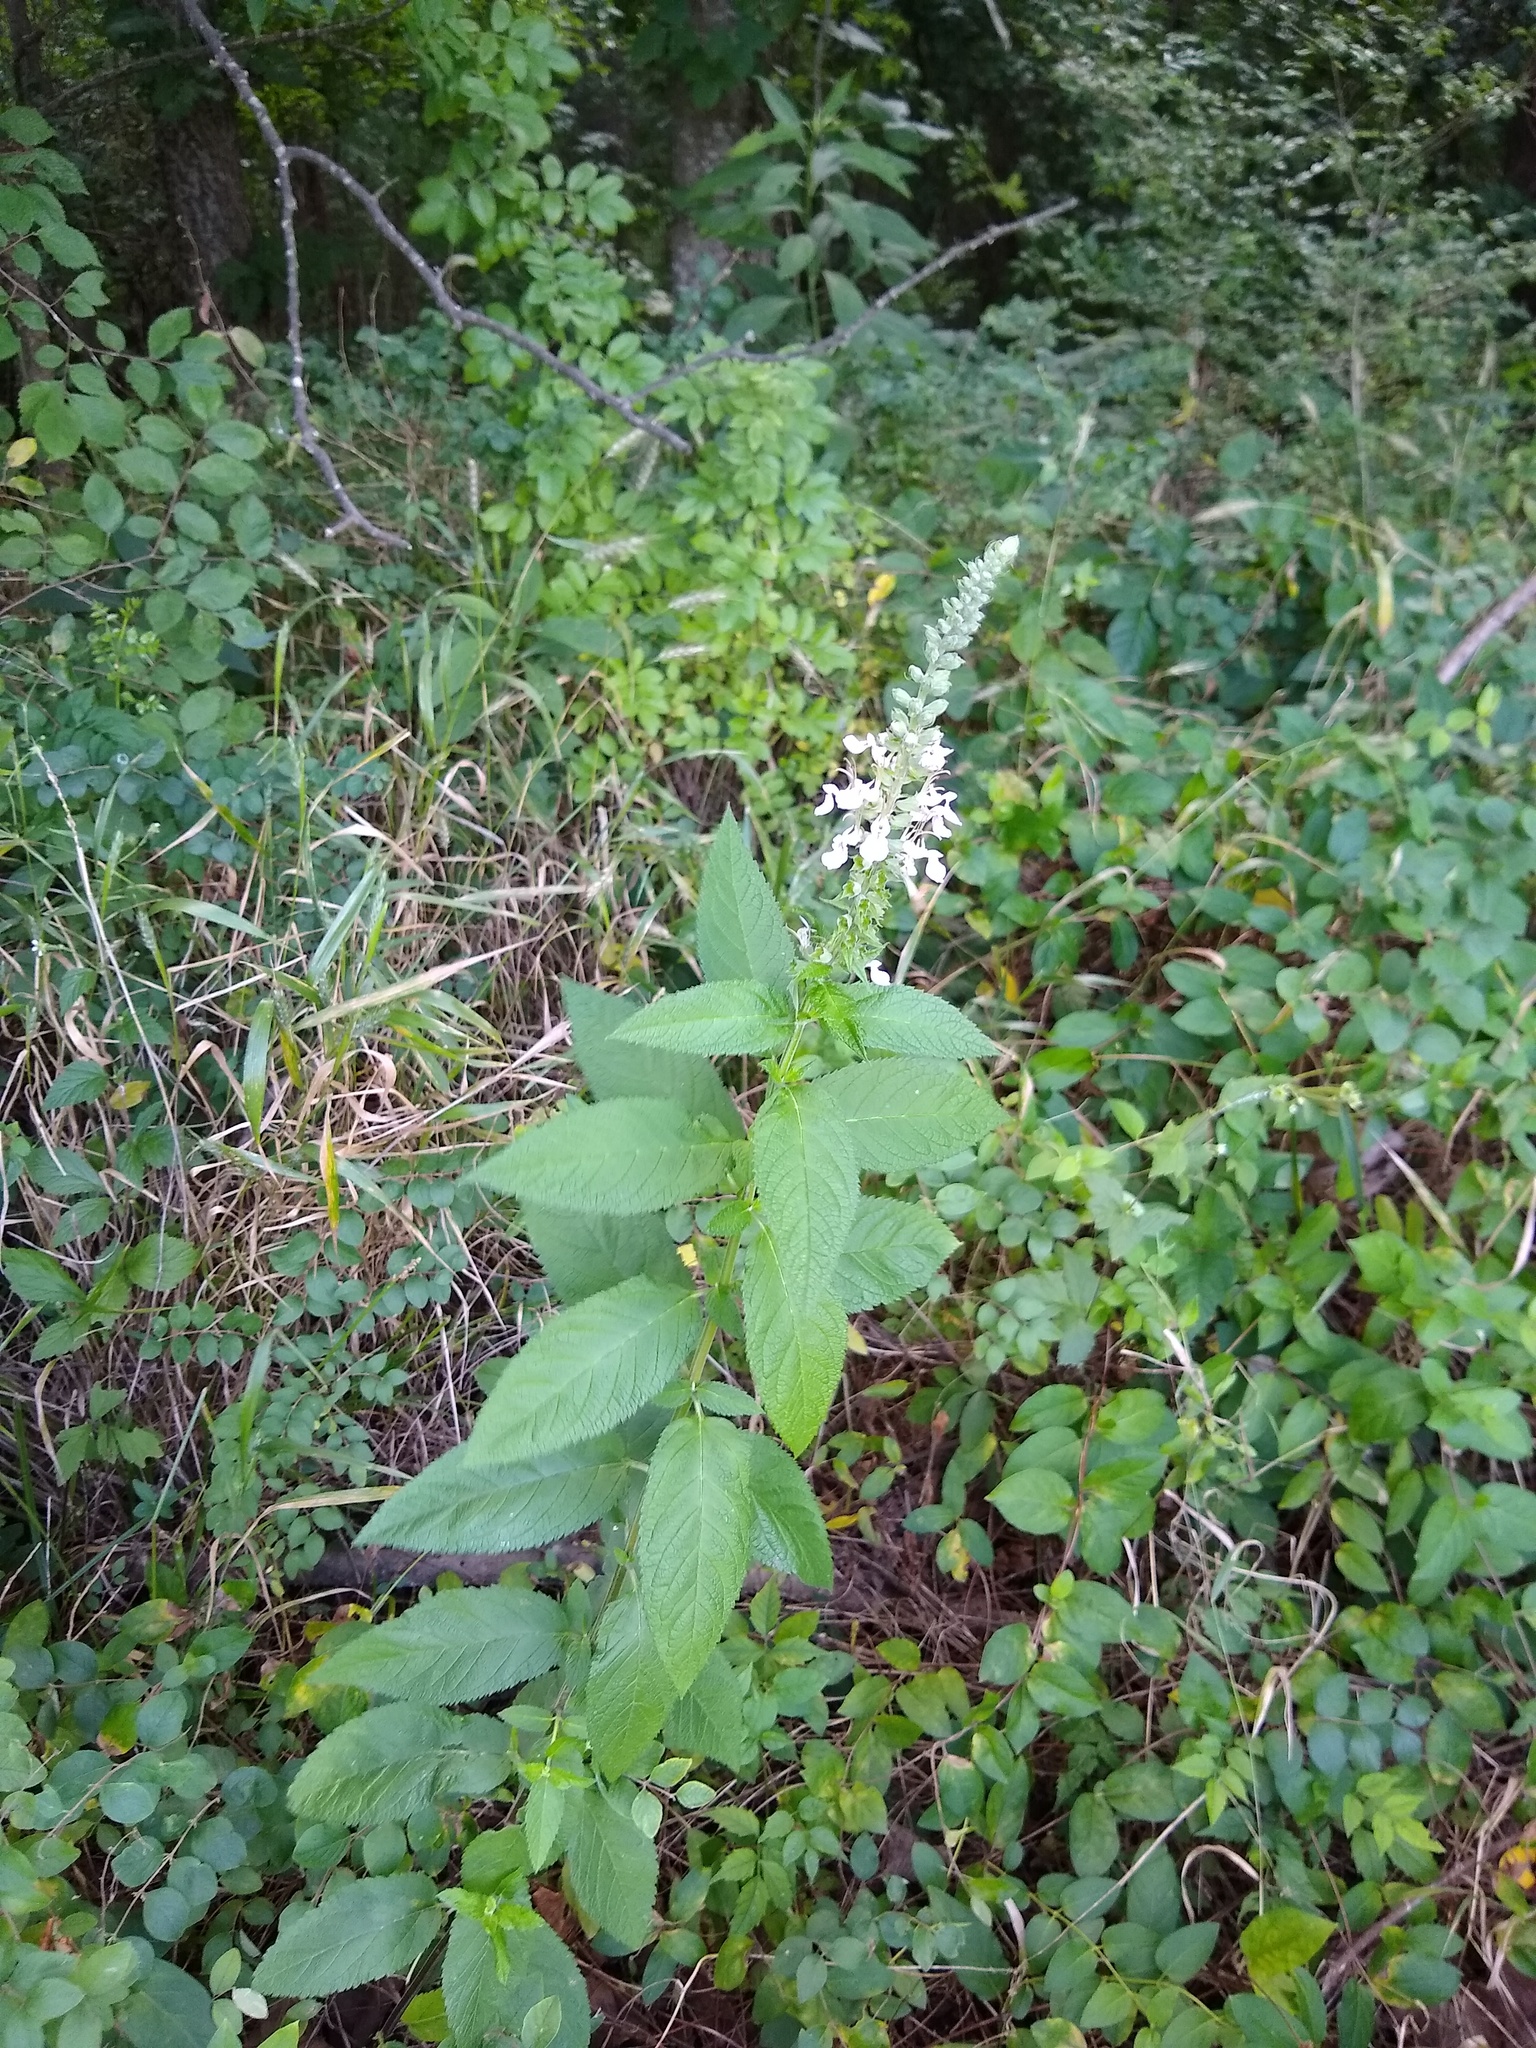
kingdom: Plantae
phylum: Tracheophyta
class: Magnoliopsida
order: Lamiales
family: Lamiaceae
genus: Teucrium
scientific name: Teucrium canadense
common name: American germander
